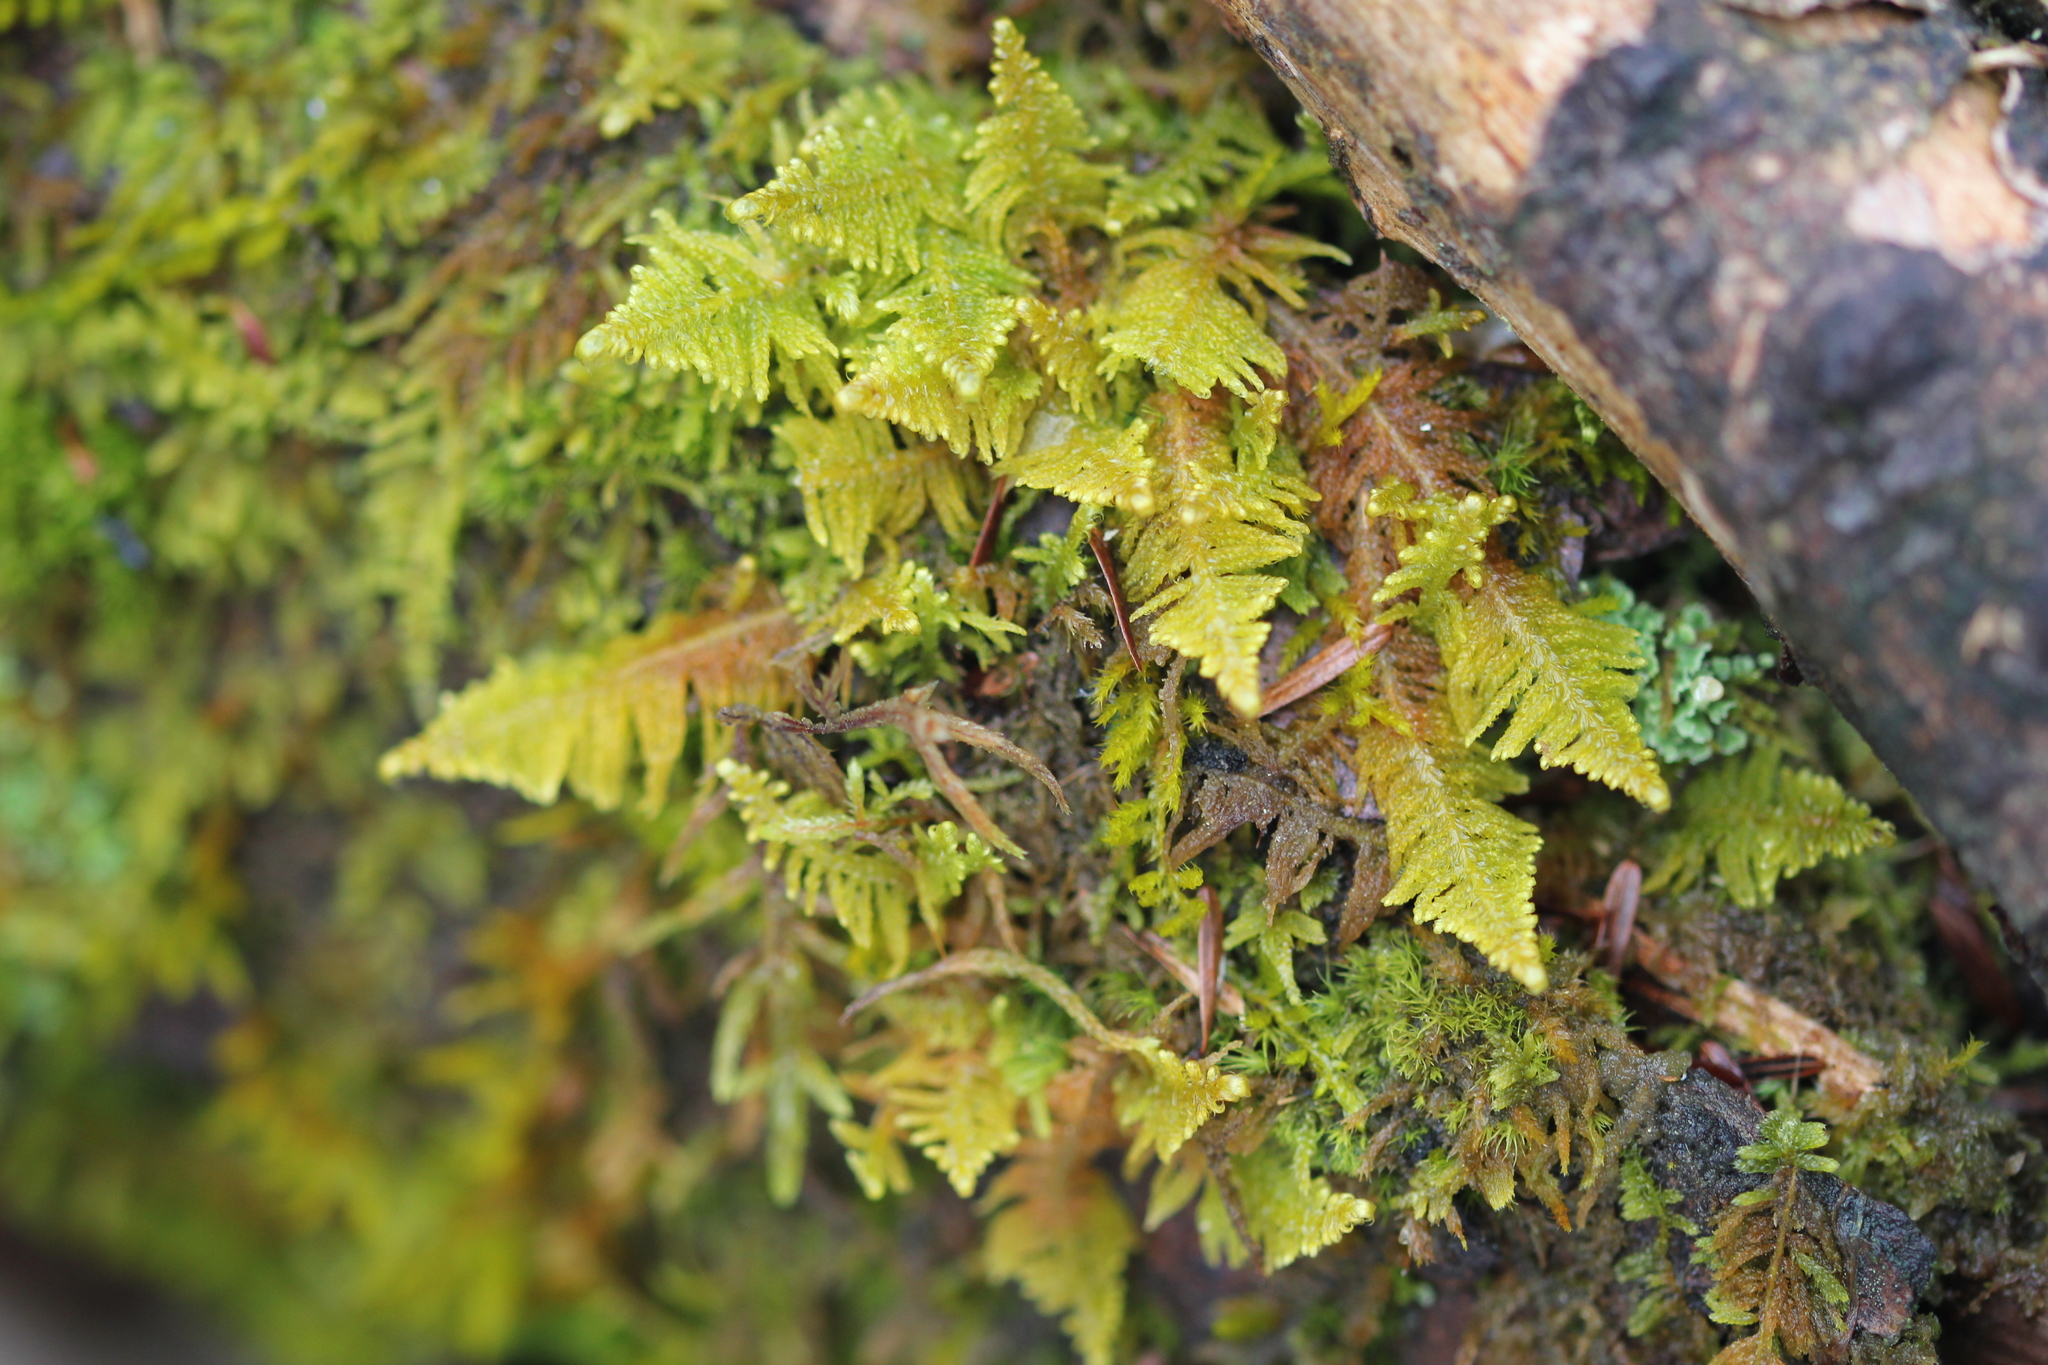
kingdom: Plantae
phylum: Bryophyta
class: Bryopsida
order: Hypnales
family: Pylaisiaceae
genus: Ptilium
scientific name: Ptilium crista-castrensis
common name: Knight's plume moss
